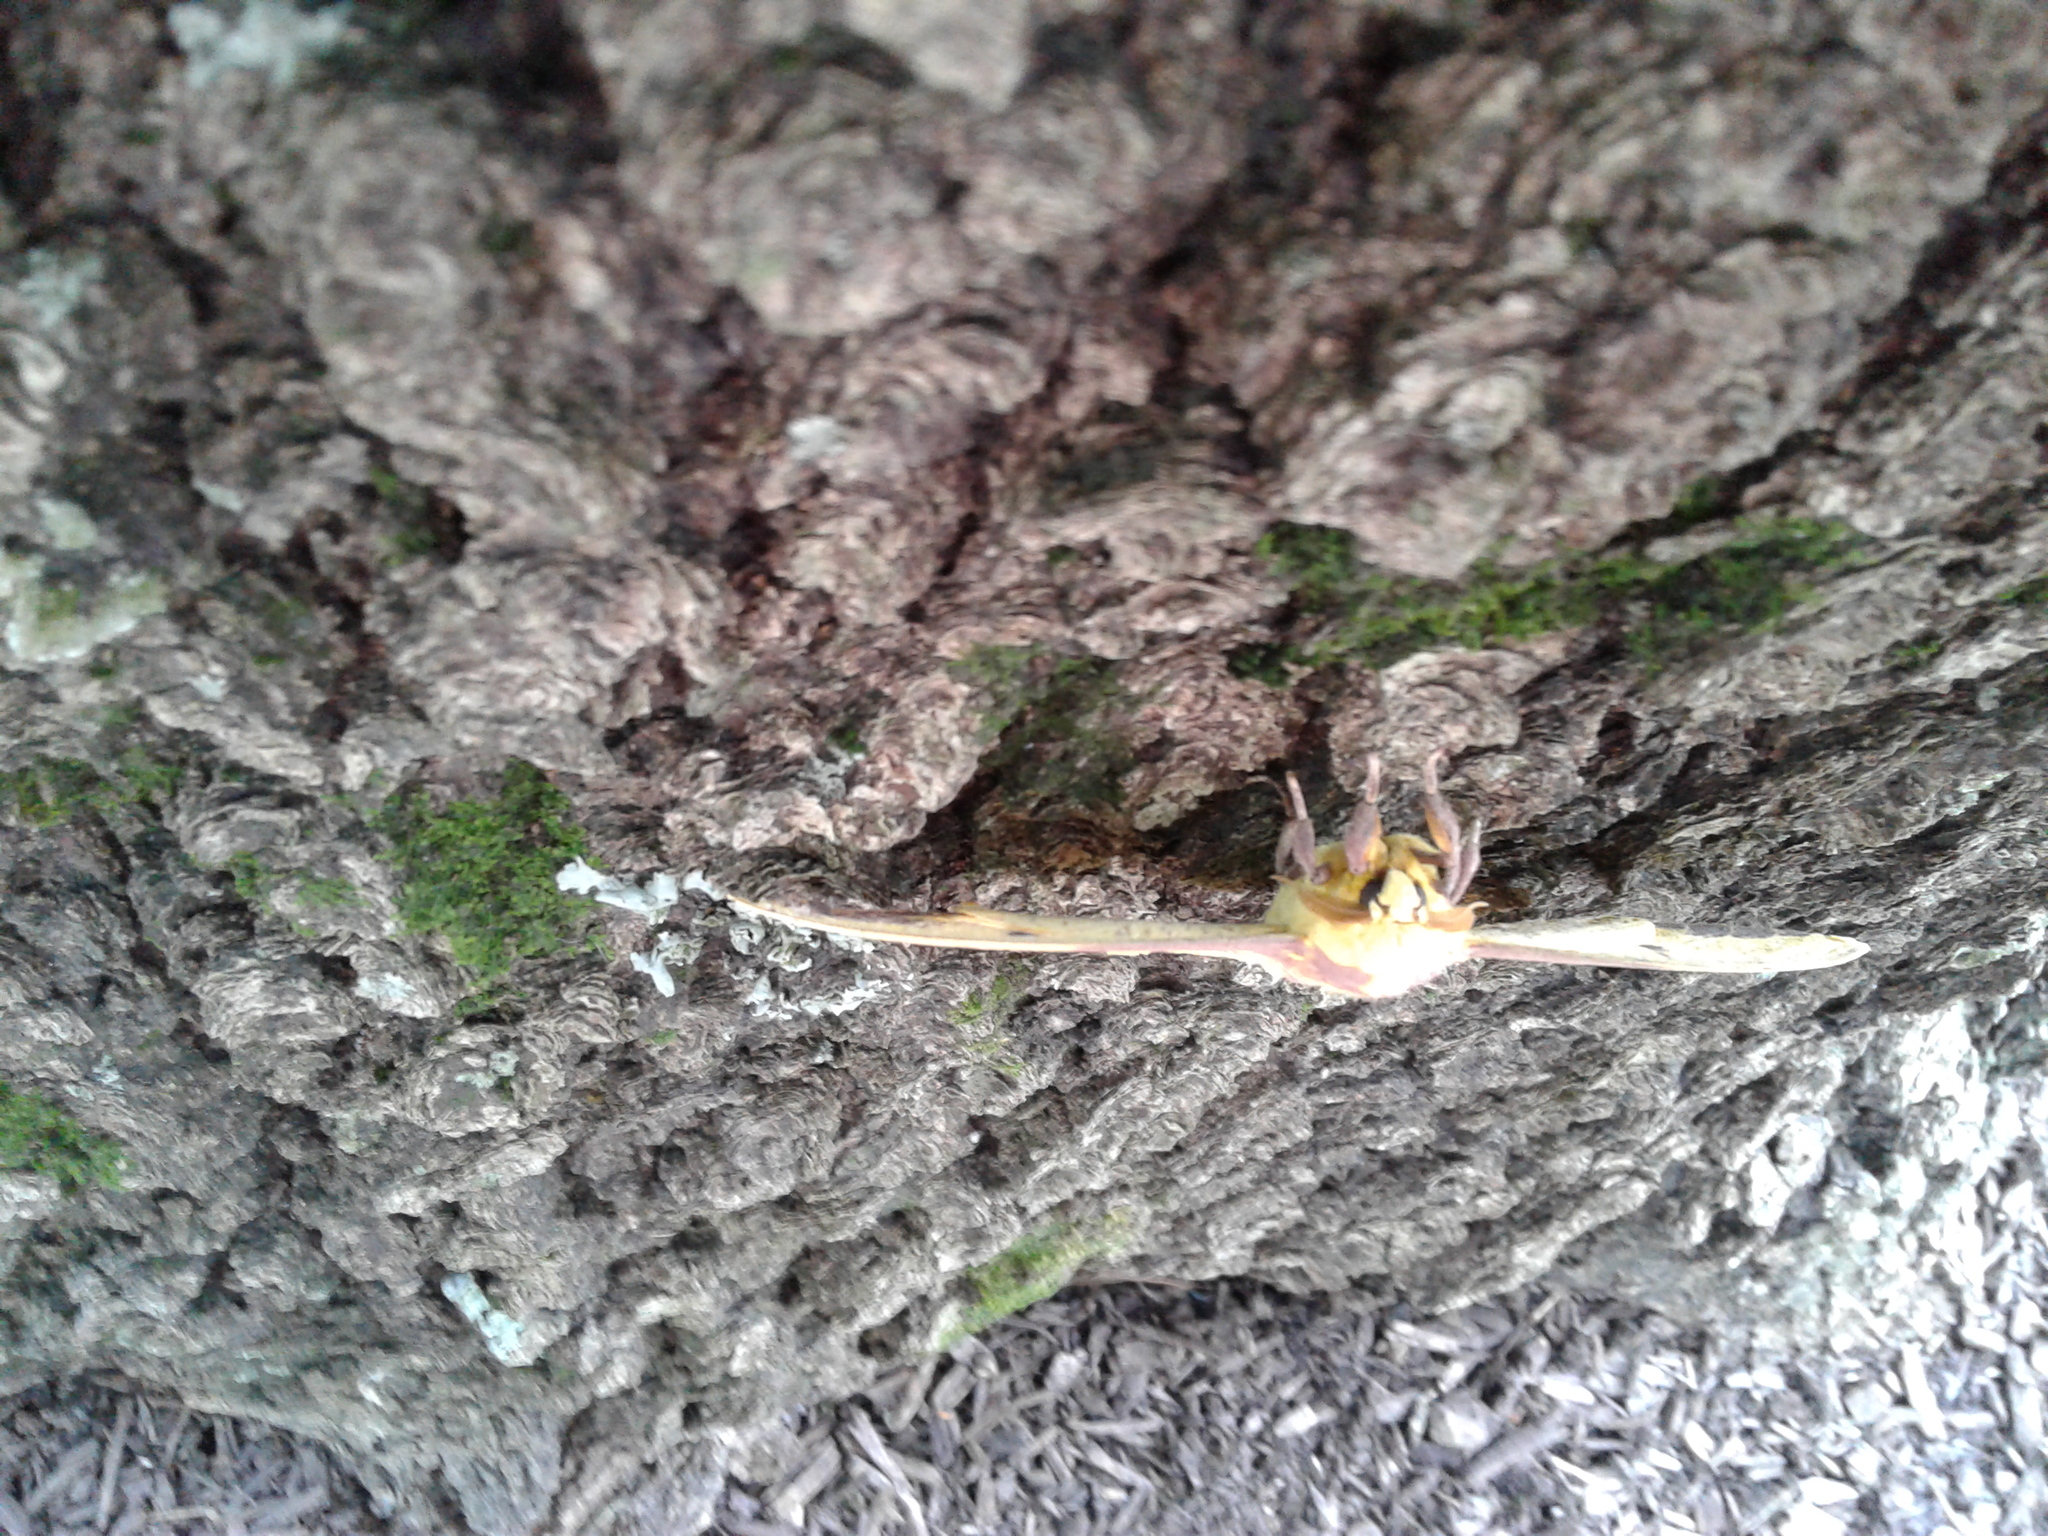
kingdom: Animalia
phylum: Arthropoda
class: Insecta
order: Lepidoptera
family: Saturniidae
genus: Eacles
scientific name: Eacles imperialis
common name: Imperial moth
